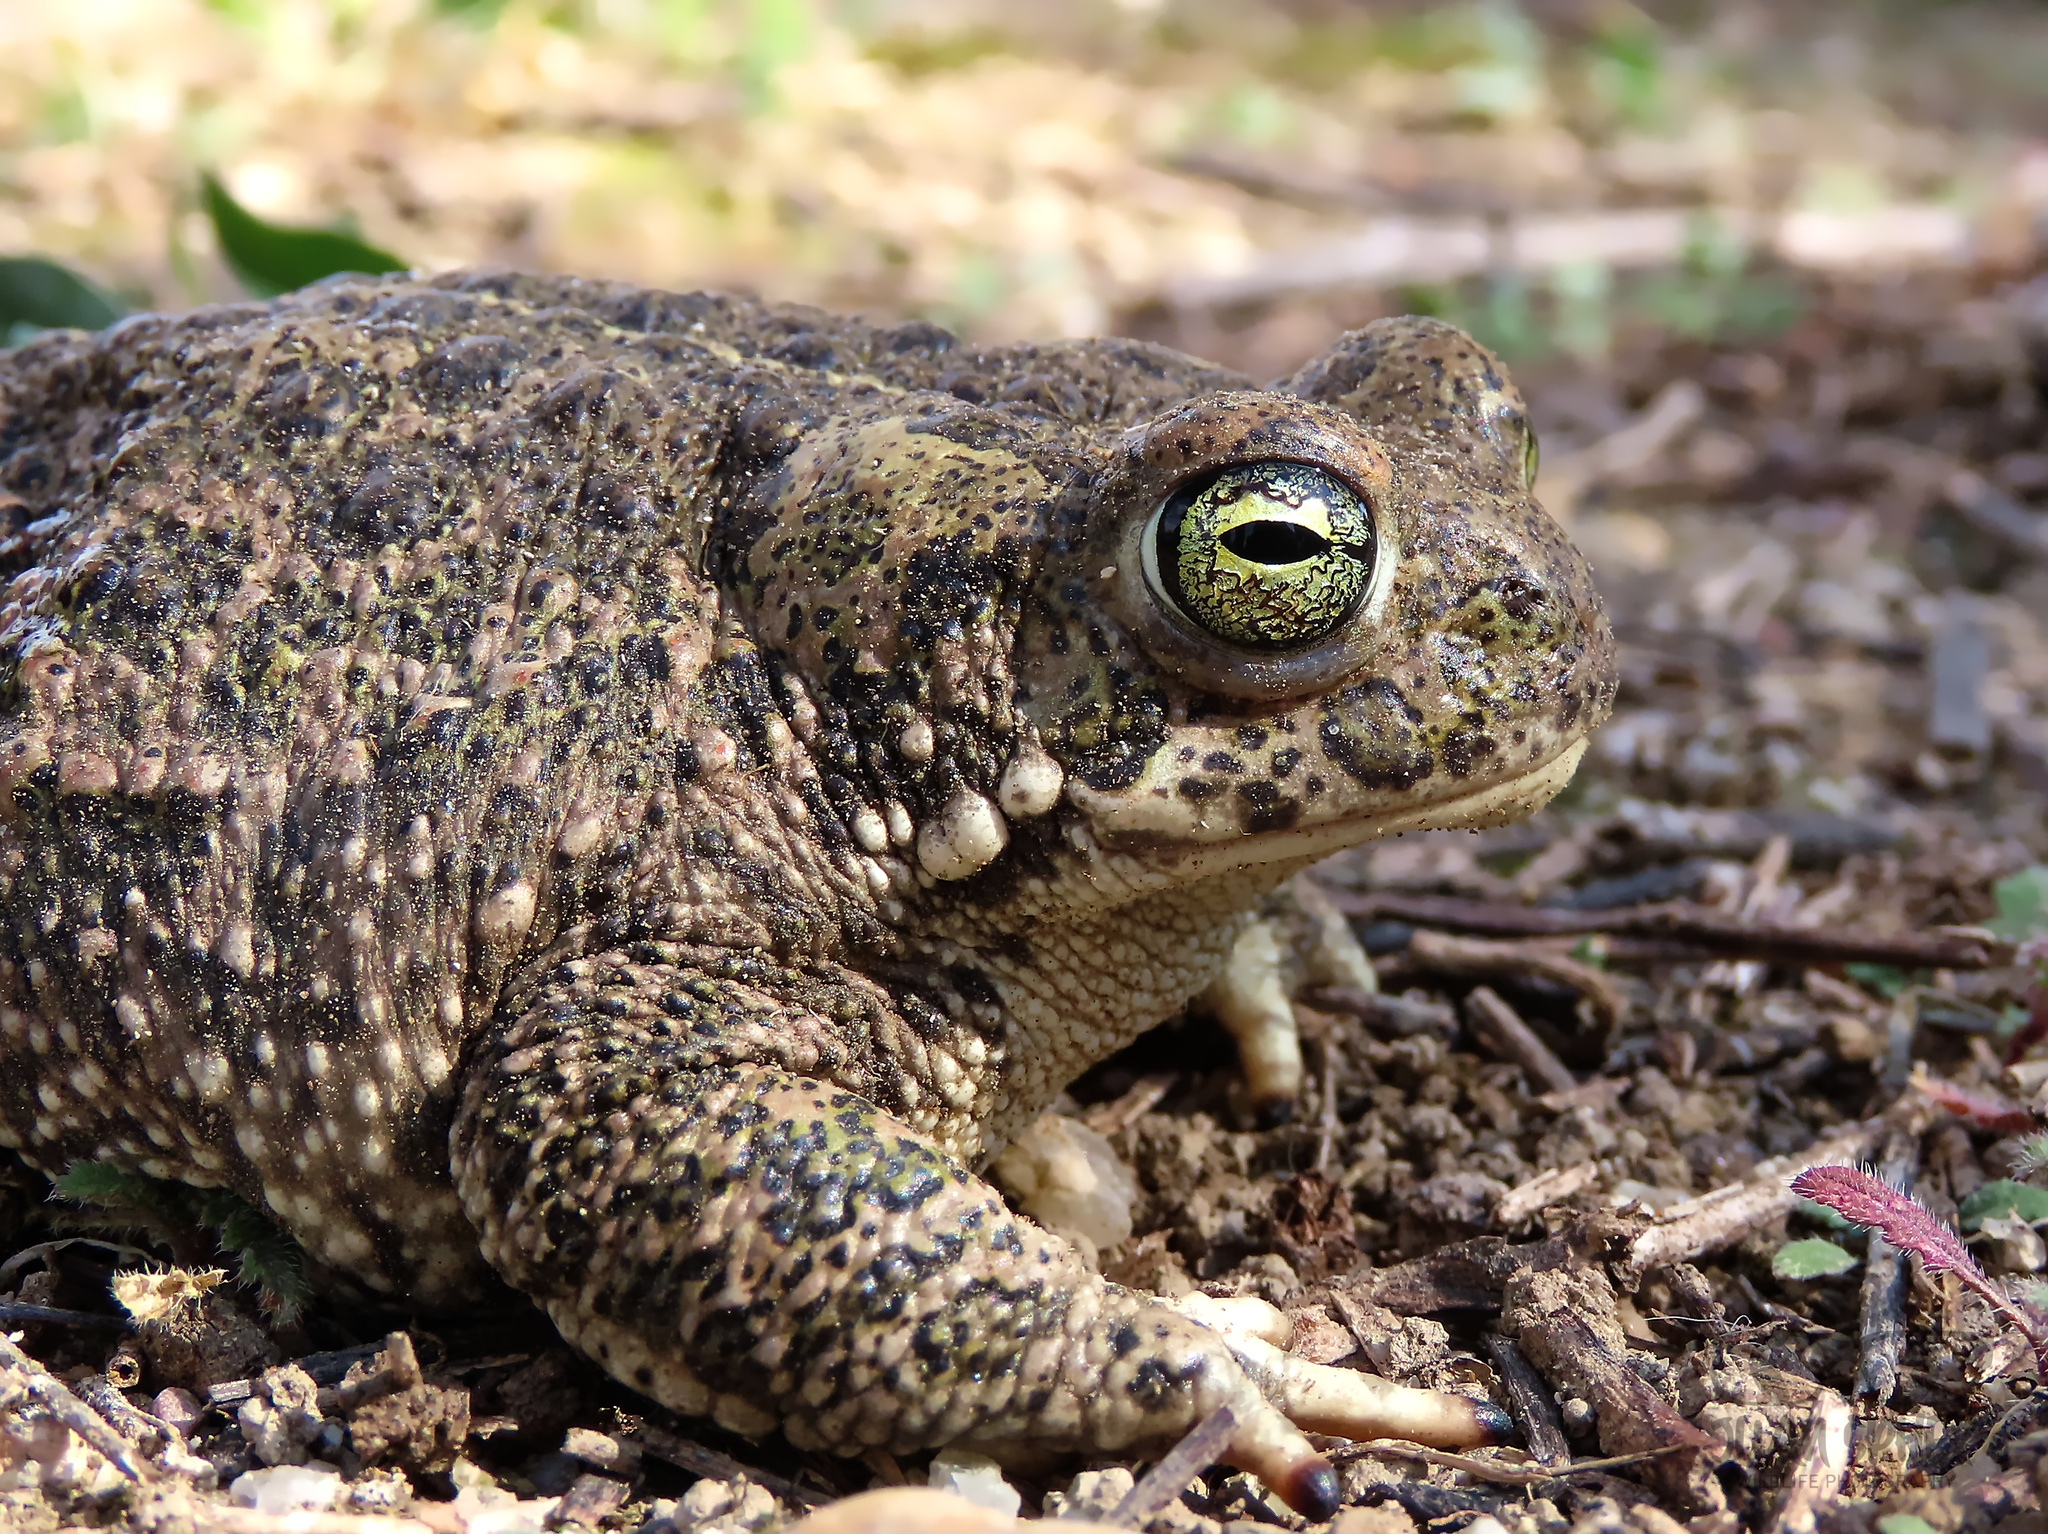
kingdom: Animalia
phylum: Chordata
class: Amphibia
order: Anura
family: Bufonidae
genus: Epidalea
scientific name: Epidalea calamita
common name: Natterjack toad
